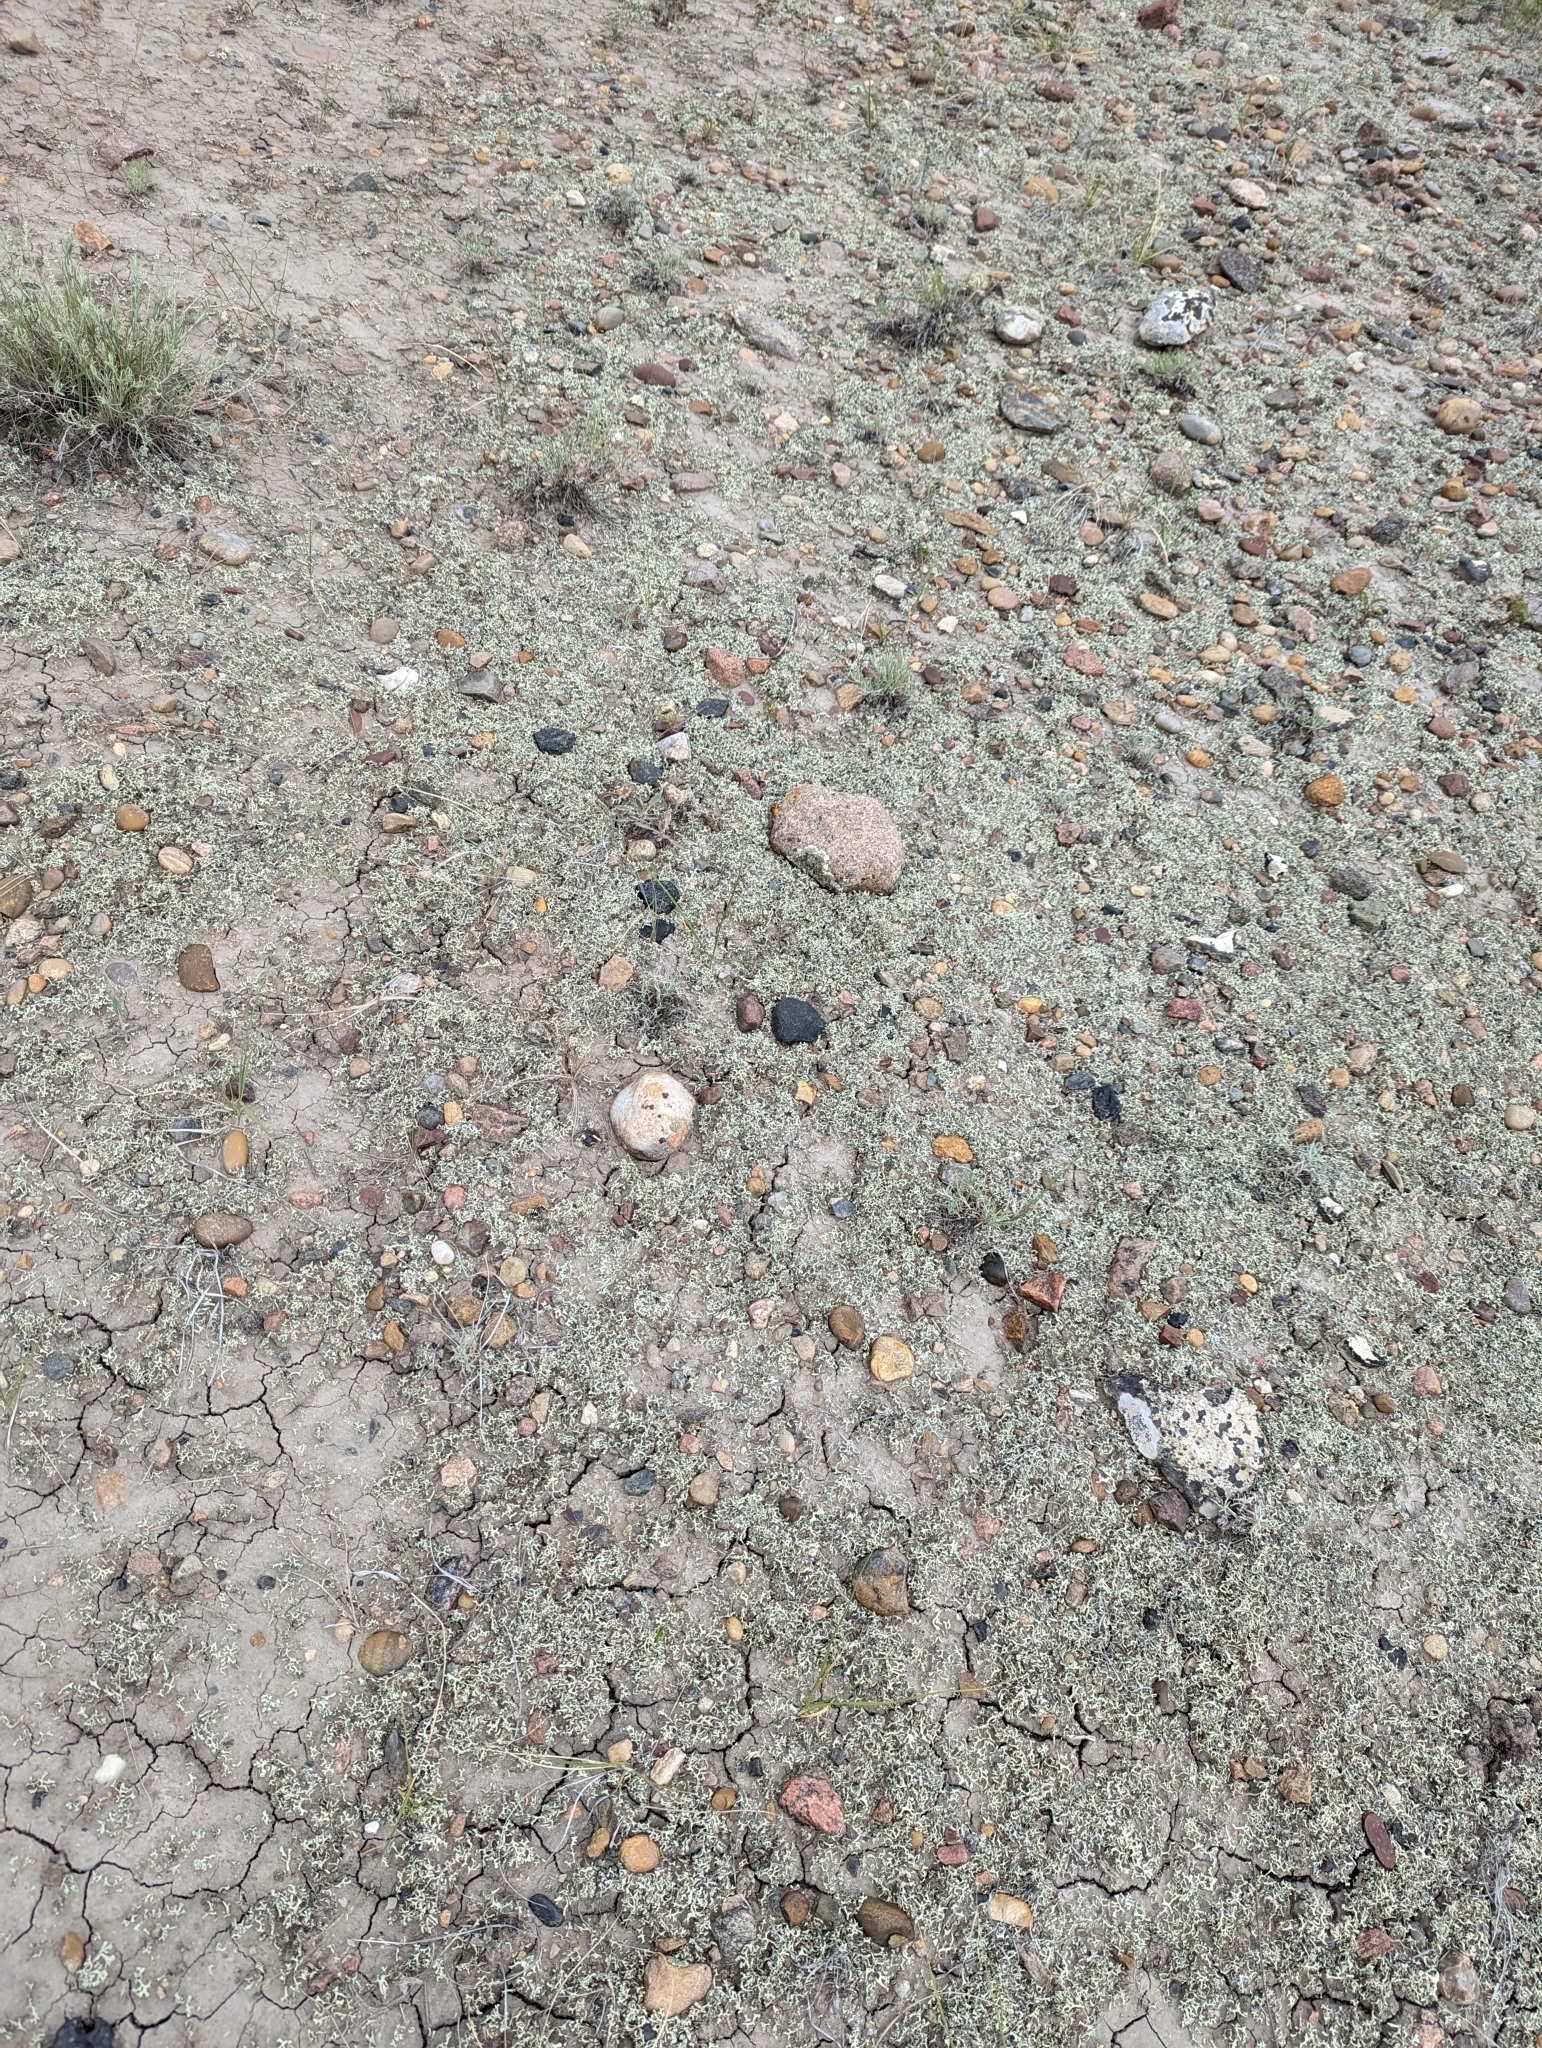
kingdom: Fungi
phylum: Ascomycota
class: Lecanoromycetes
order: Lecanorales
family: Parmeliaceae
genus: Xanthoparmelia
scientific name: Xanthoparmelia chlorochroa
